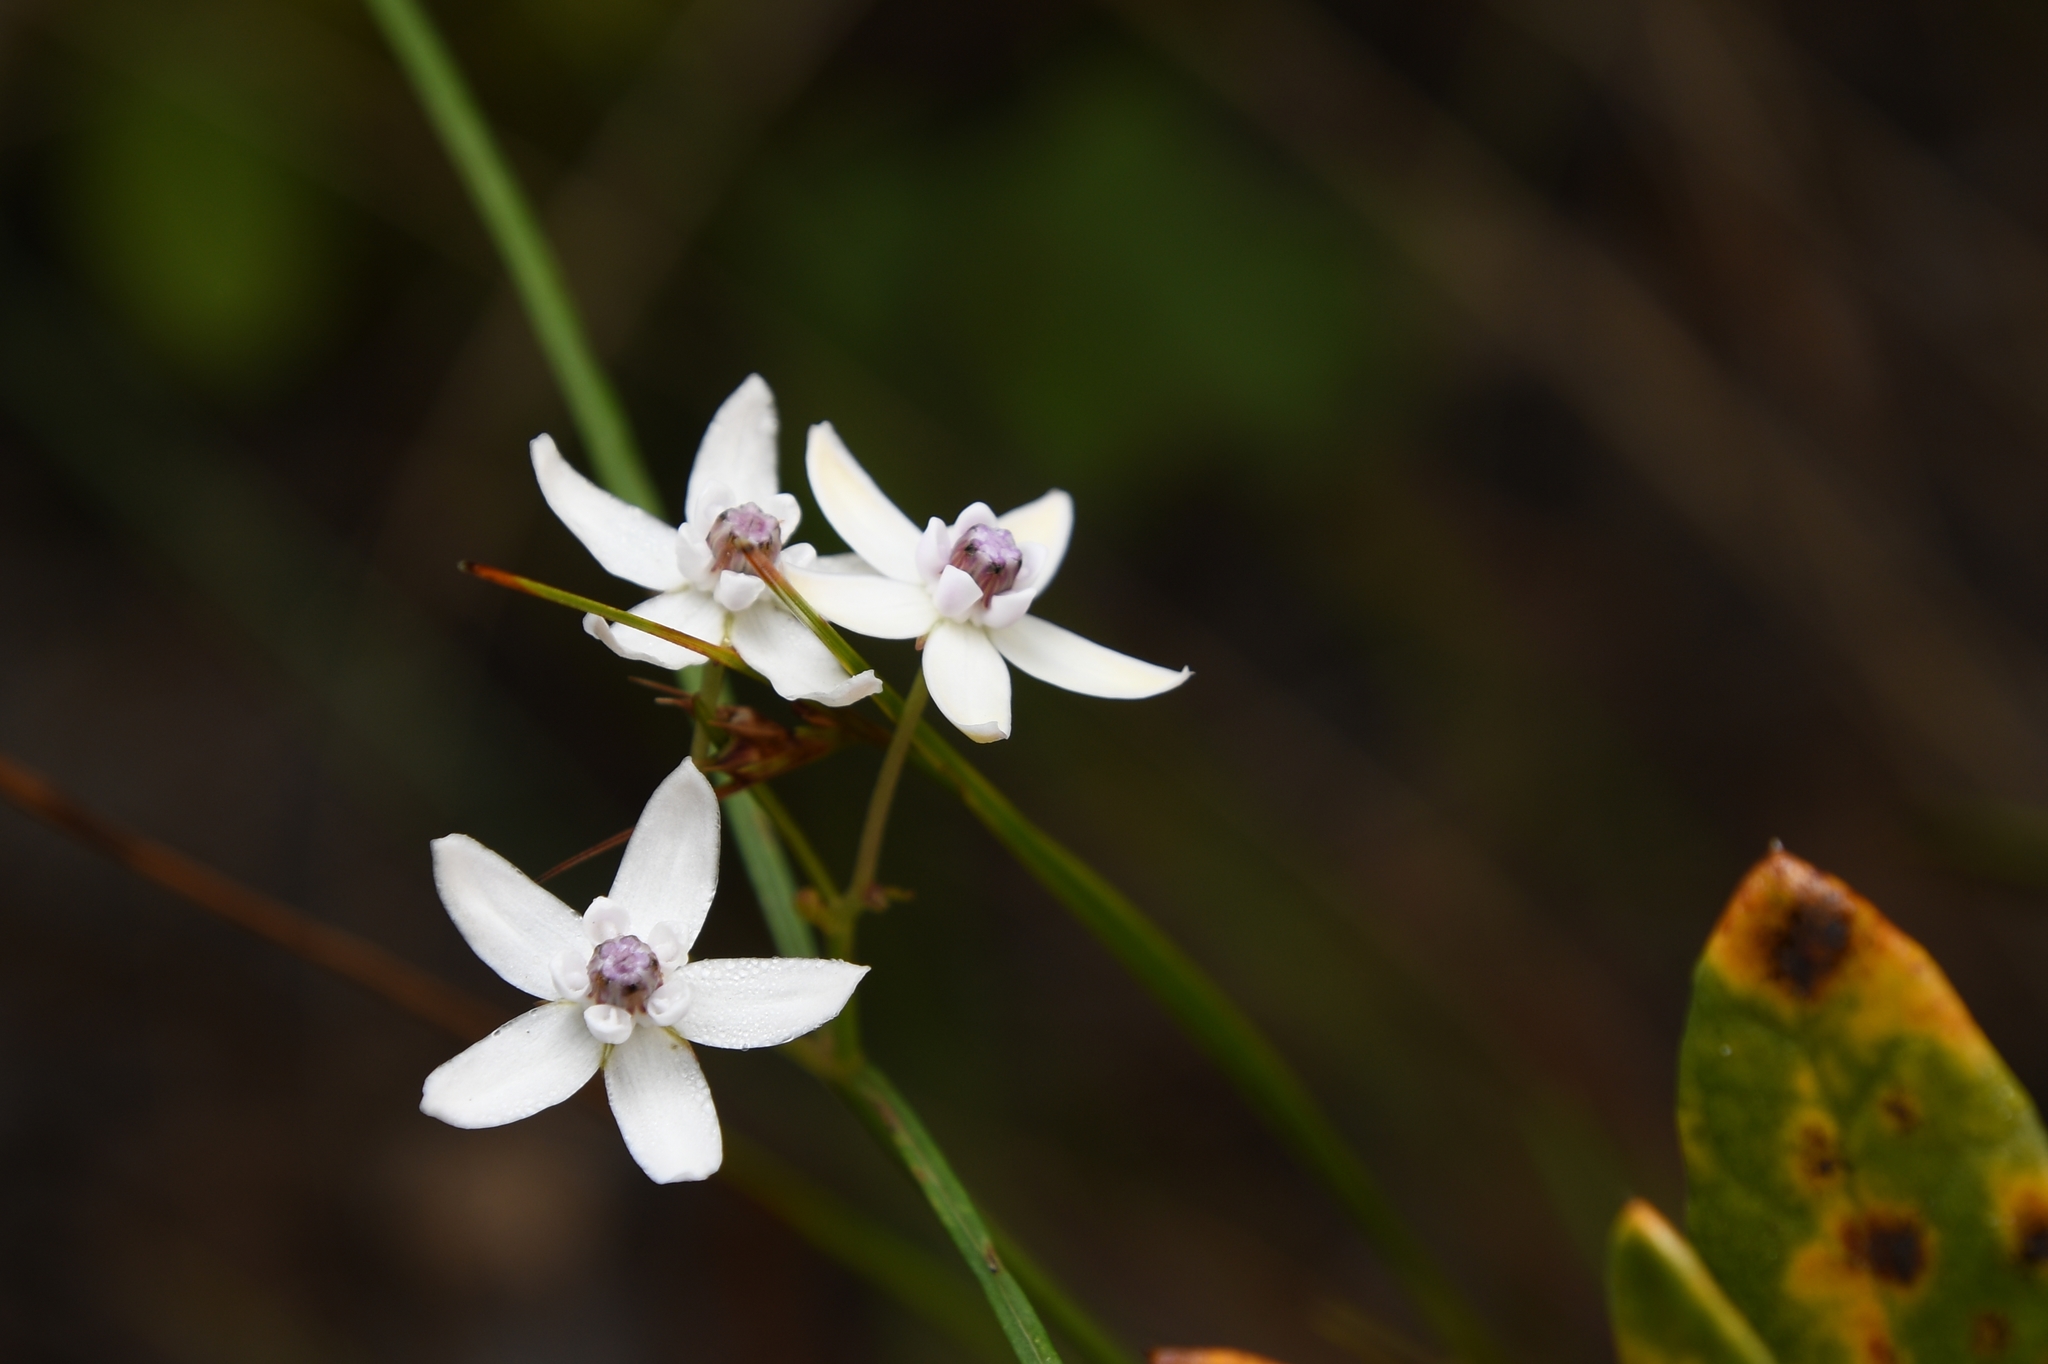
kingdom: Plantae
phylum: Tracheophyta
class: Magnoliopsida
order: Gentianales
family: Apocynaceae
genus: Asclepias
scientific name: Asclepias feayi
